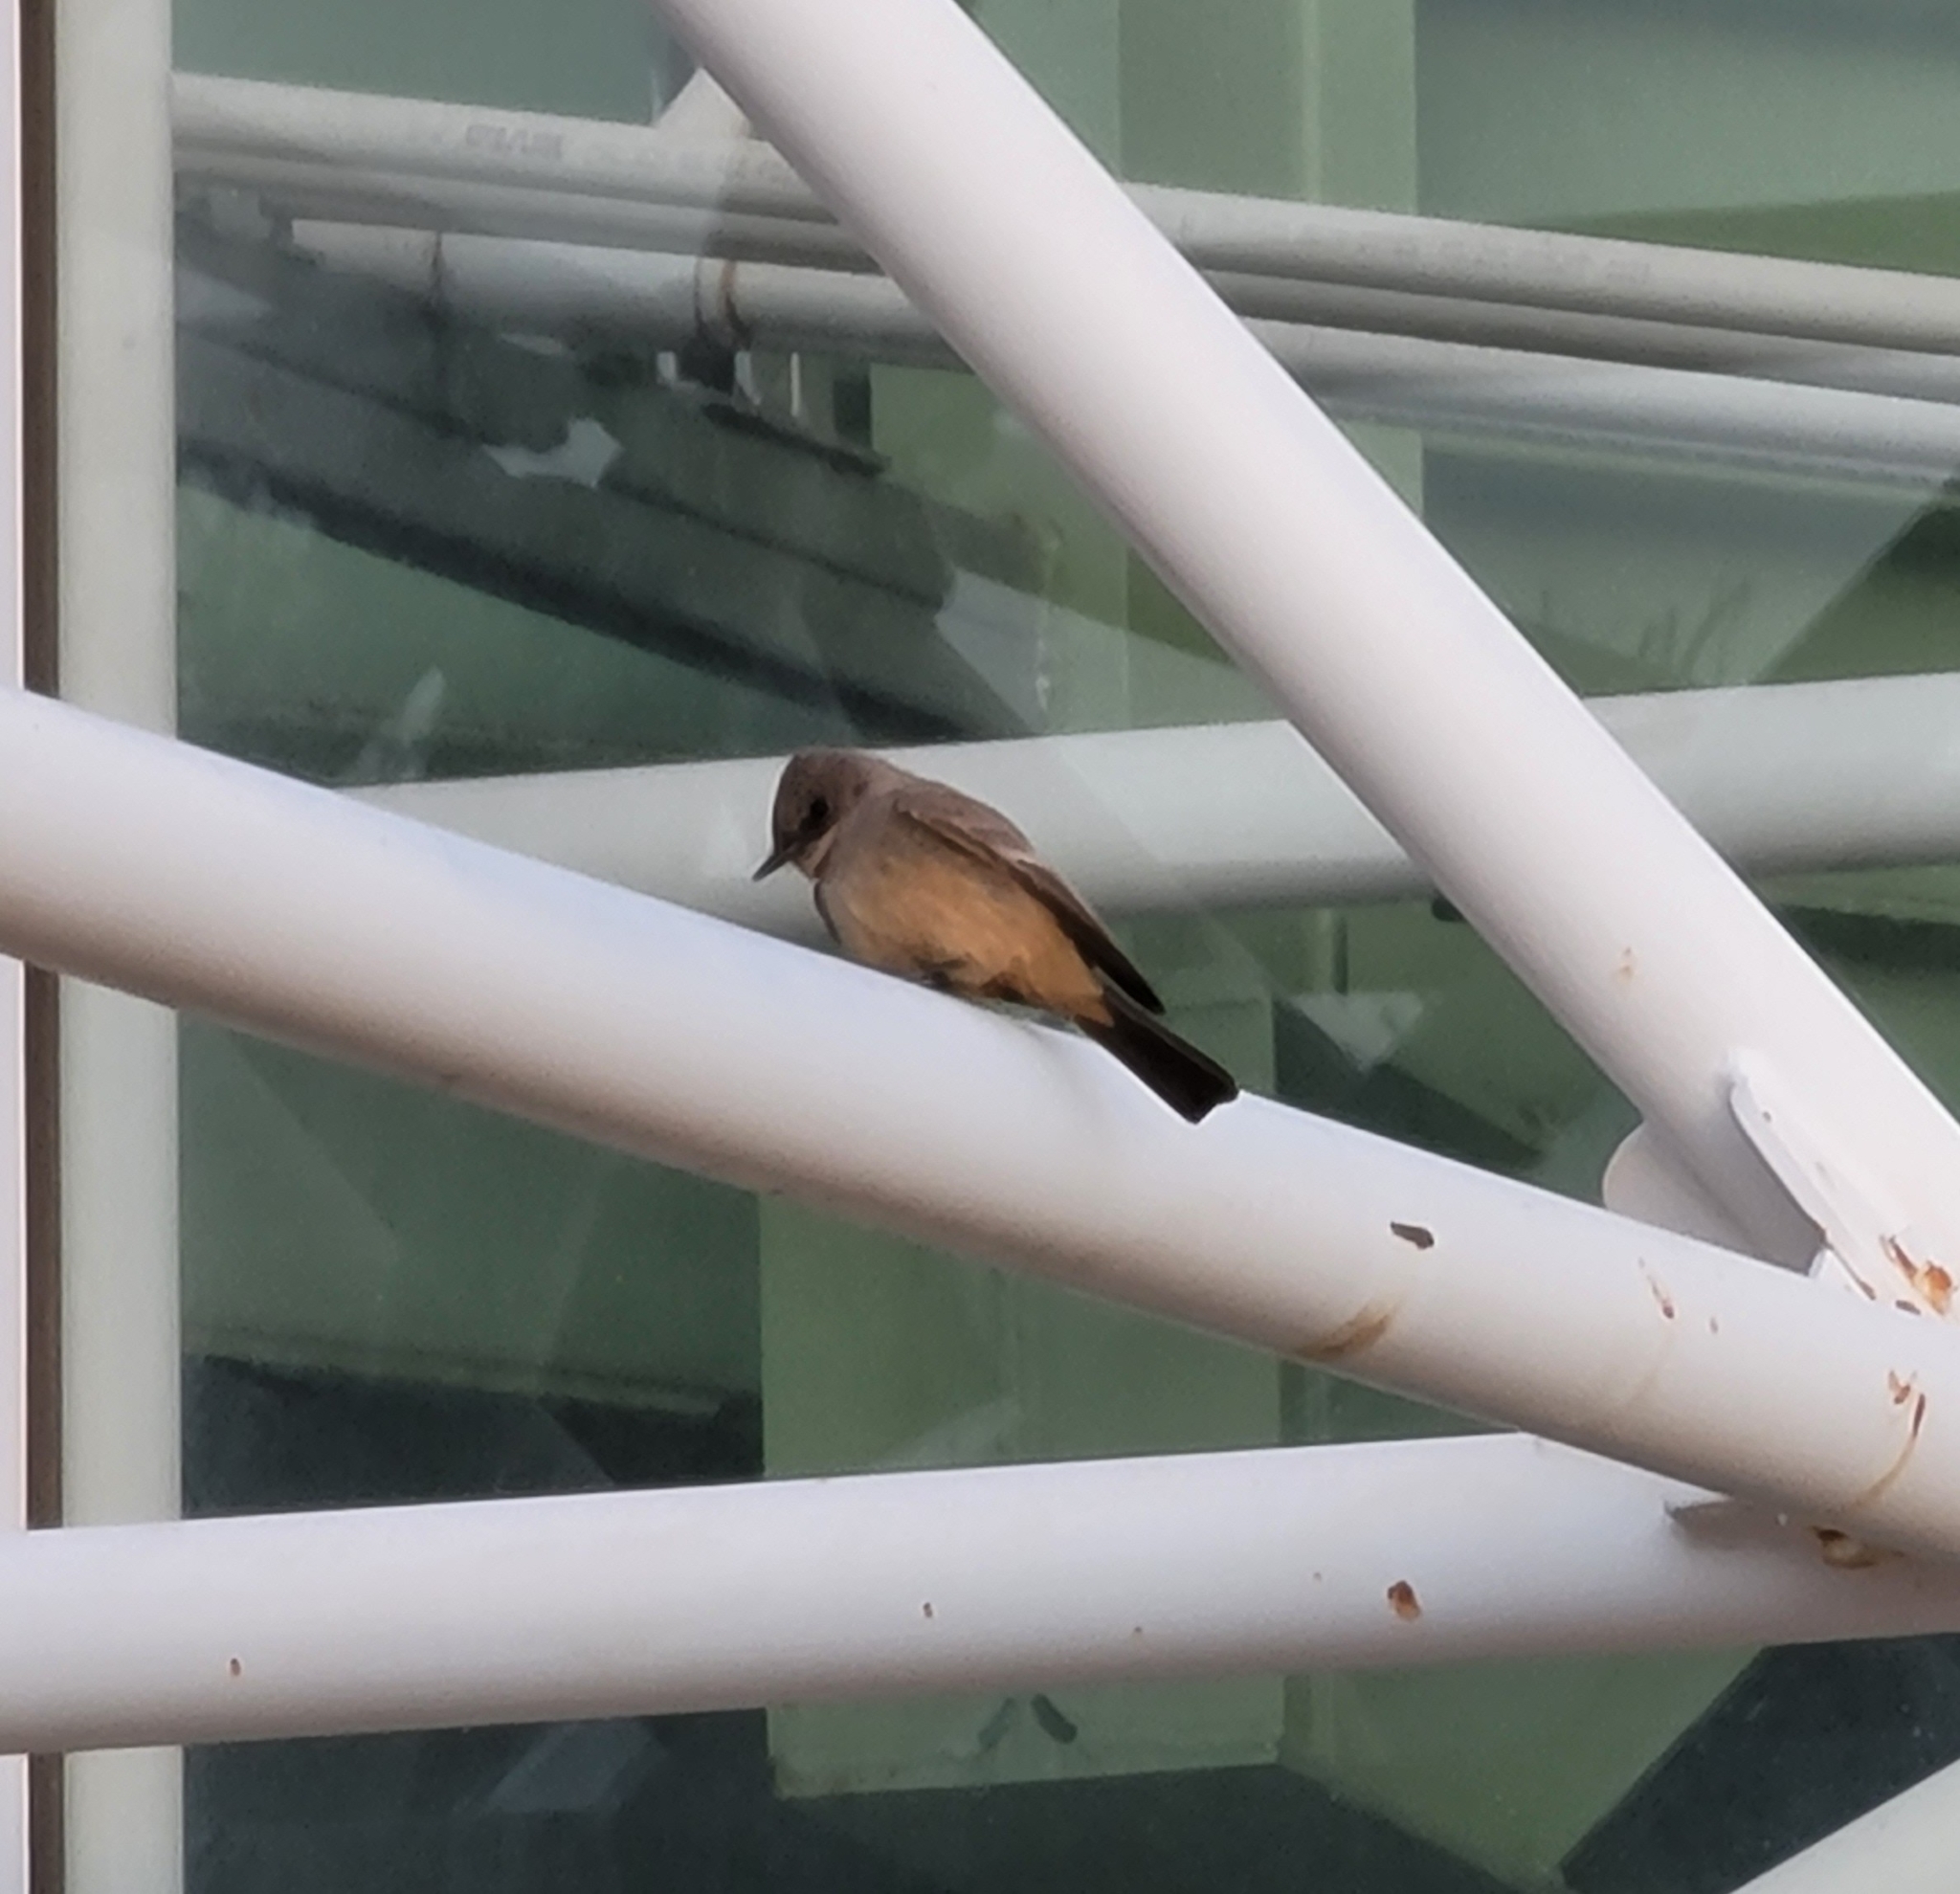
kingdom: Animalia
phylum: Chordata
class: Aves
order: Passeriformes
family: Tyrannidae
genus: Sayornis
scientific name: Sayornis saya
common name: Say's phoebe
